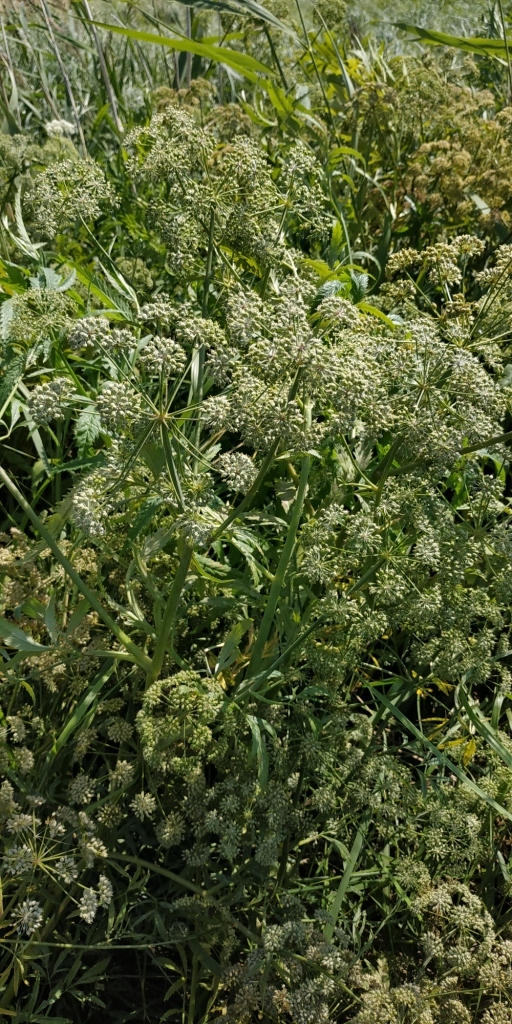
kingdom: Plantae
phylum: Tracheophyta
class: Magnoliopsida
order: Apiales
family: Apiaceae
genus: Cicuta
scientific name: Cicuta virosa
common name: Cowbane
